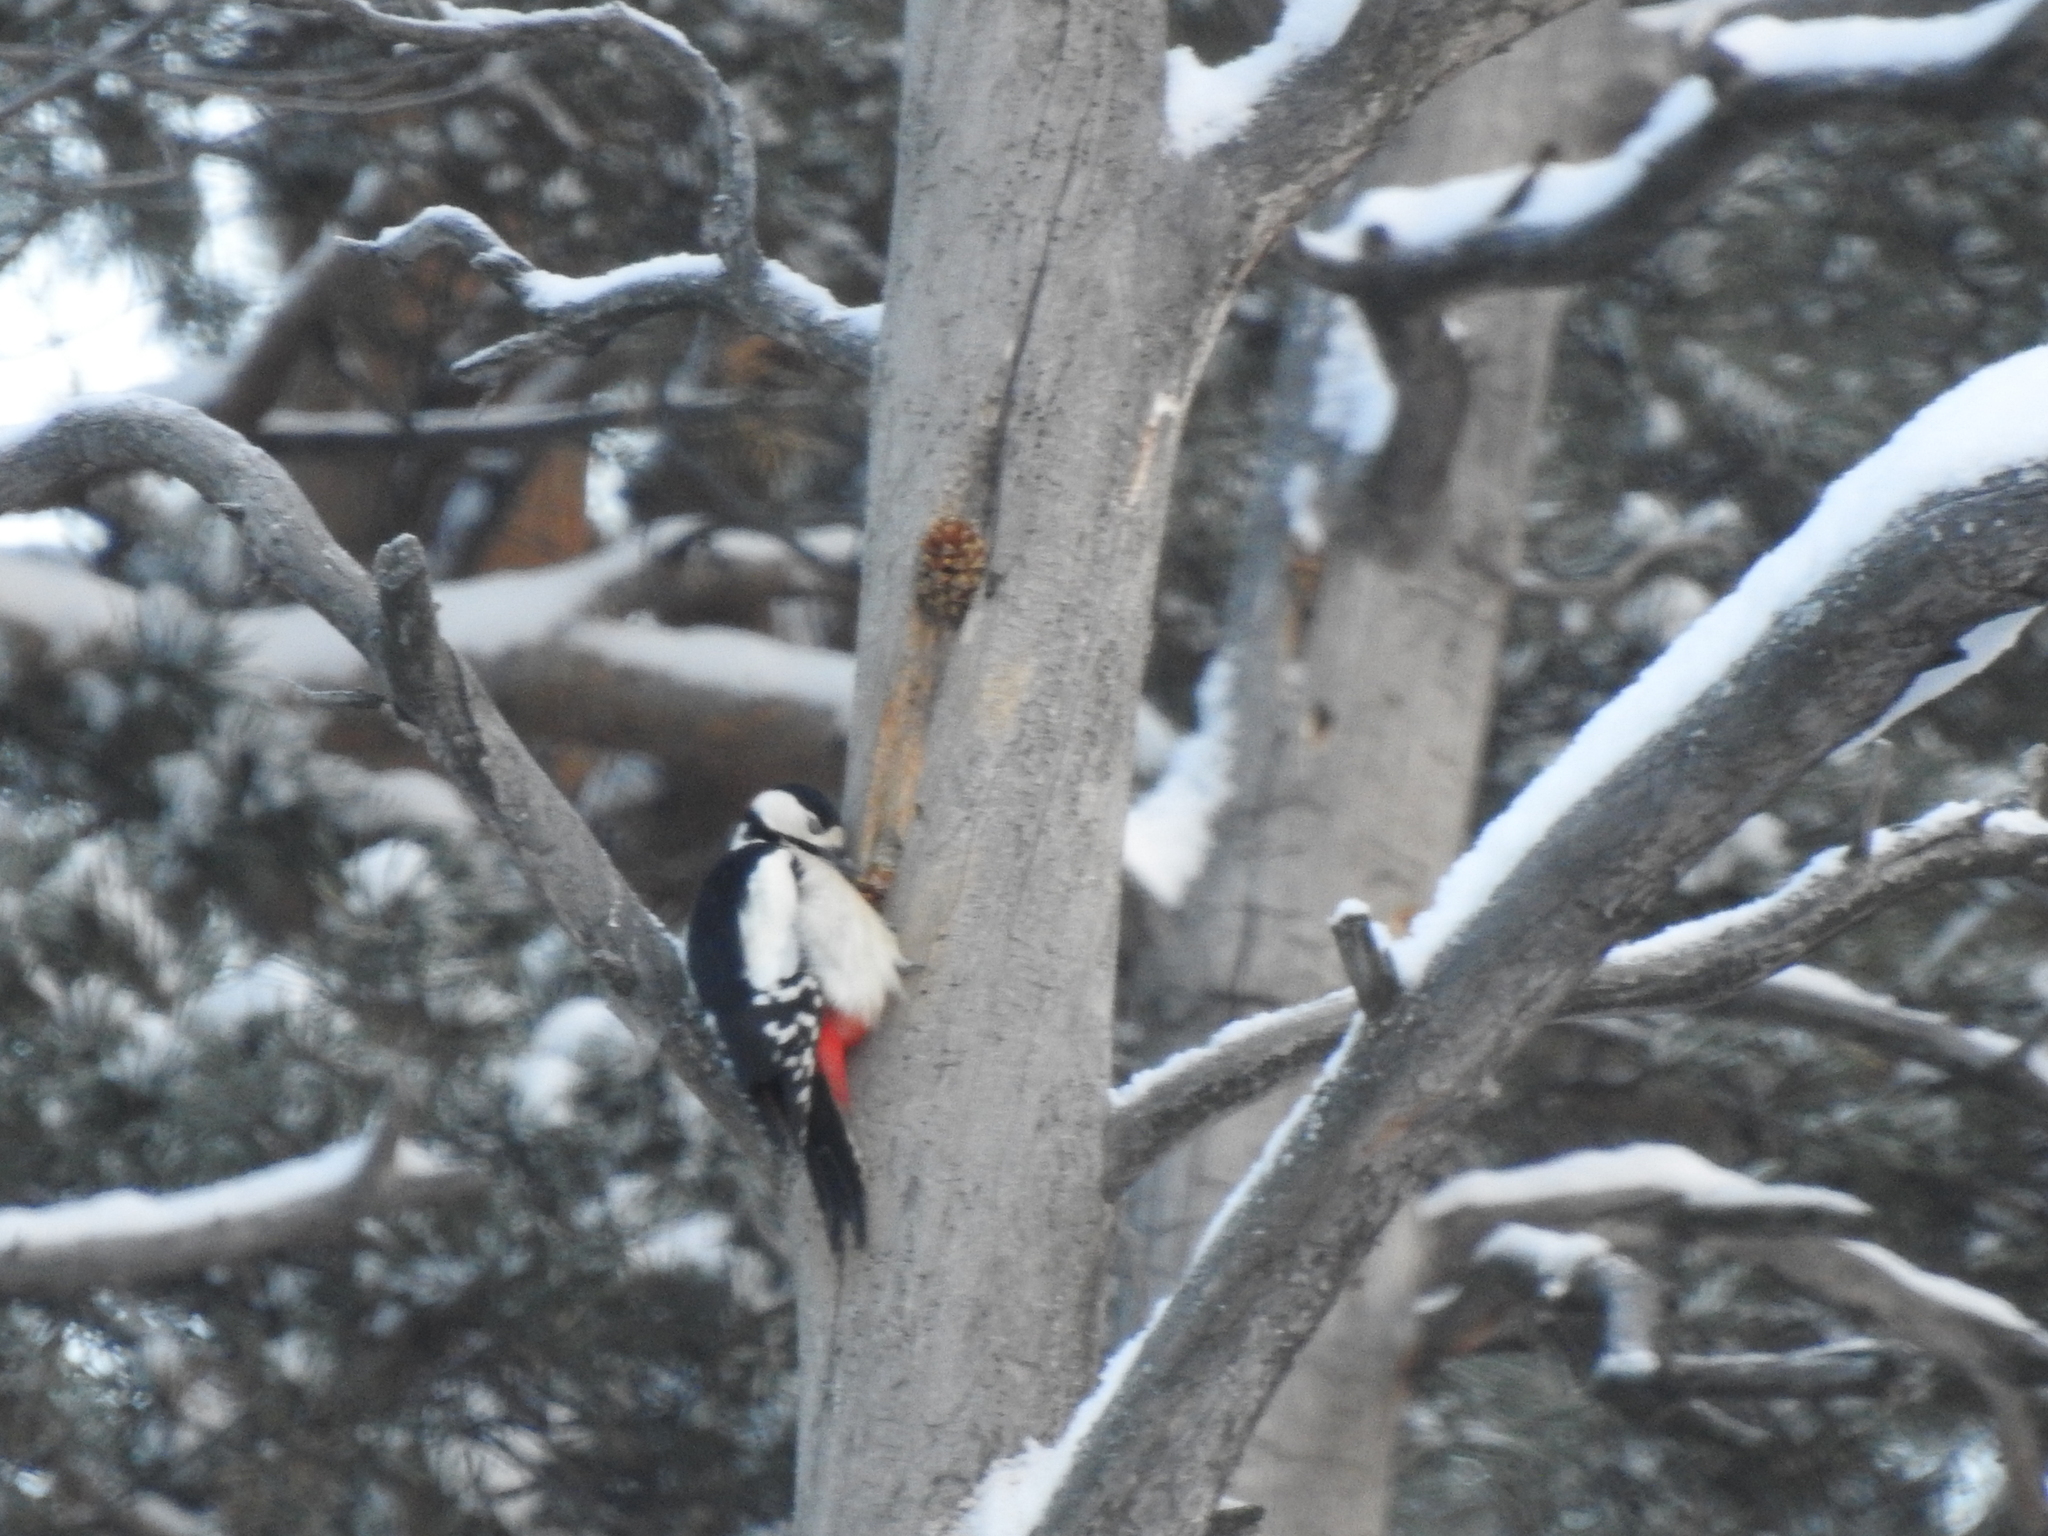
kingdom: Animalia
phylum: Chordata
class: Aves
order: Piciformes
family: Picidae
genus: Dendrocopos
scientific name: Dendrocopos major
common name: Great spotted woodpecker
